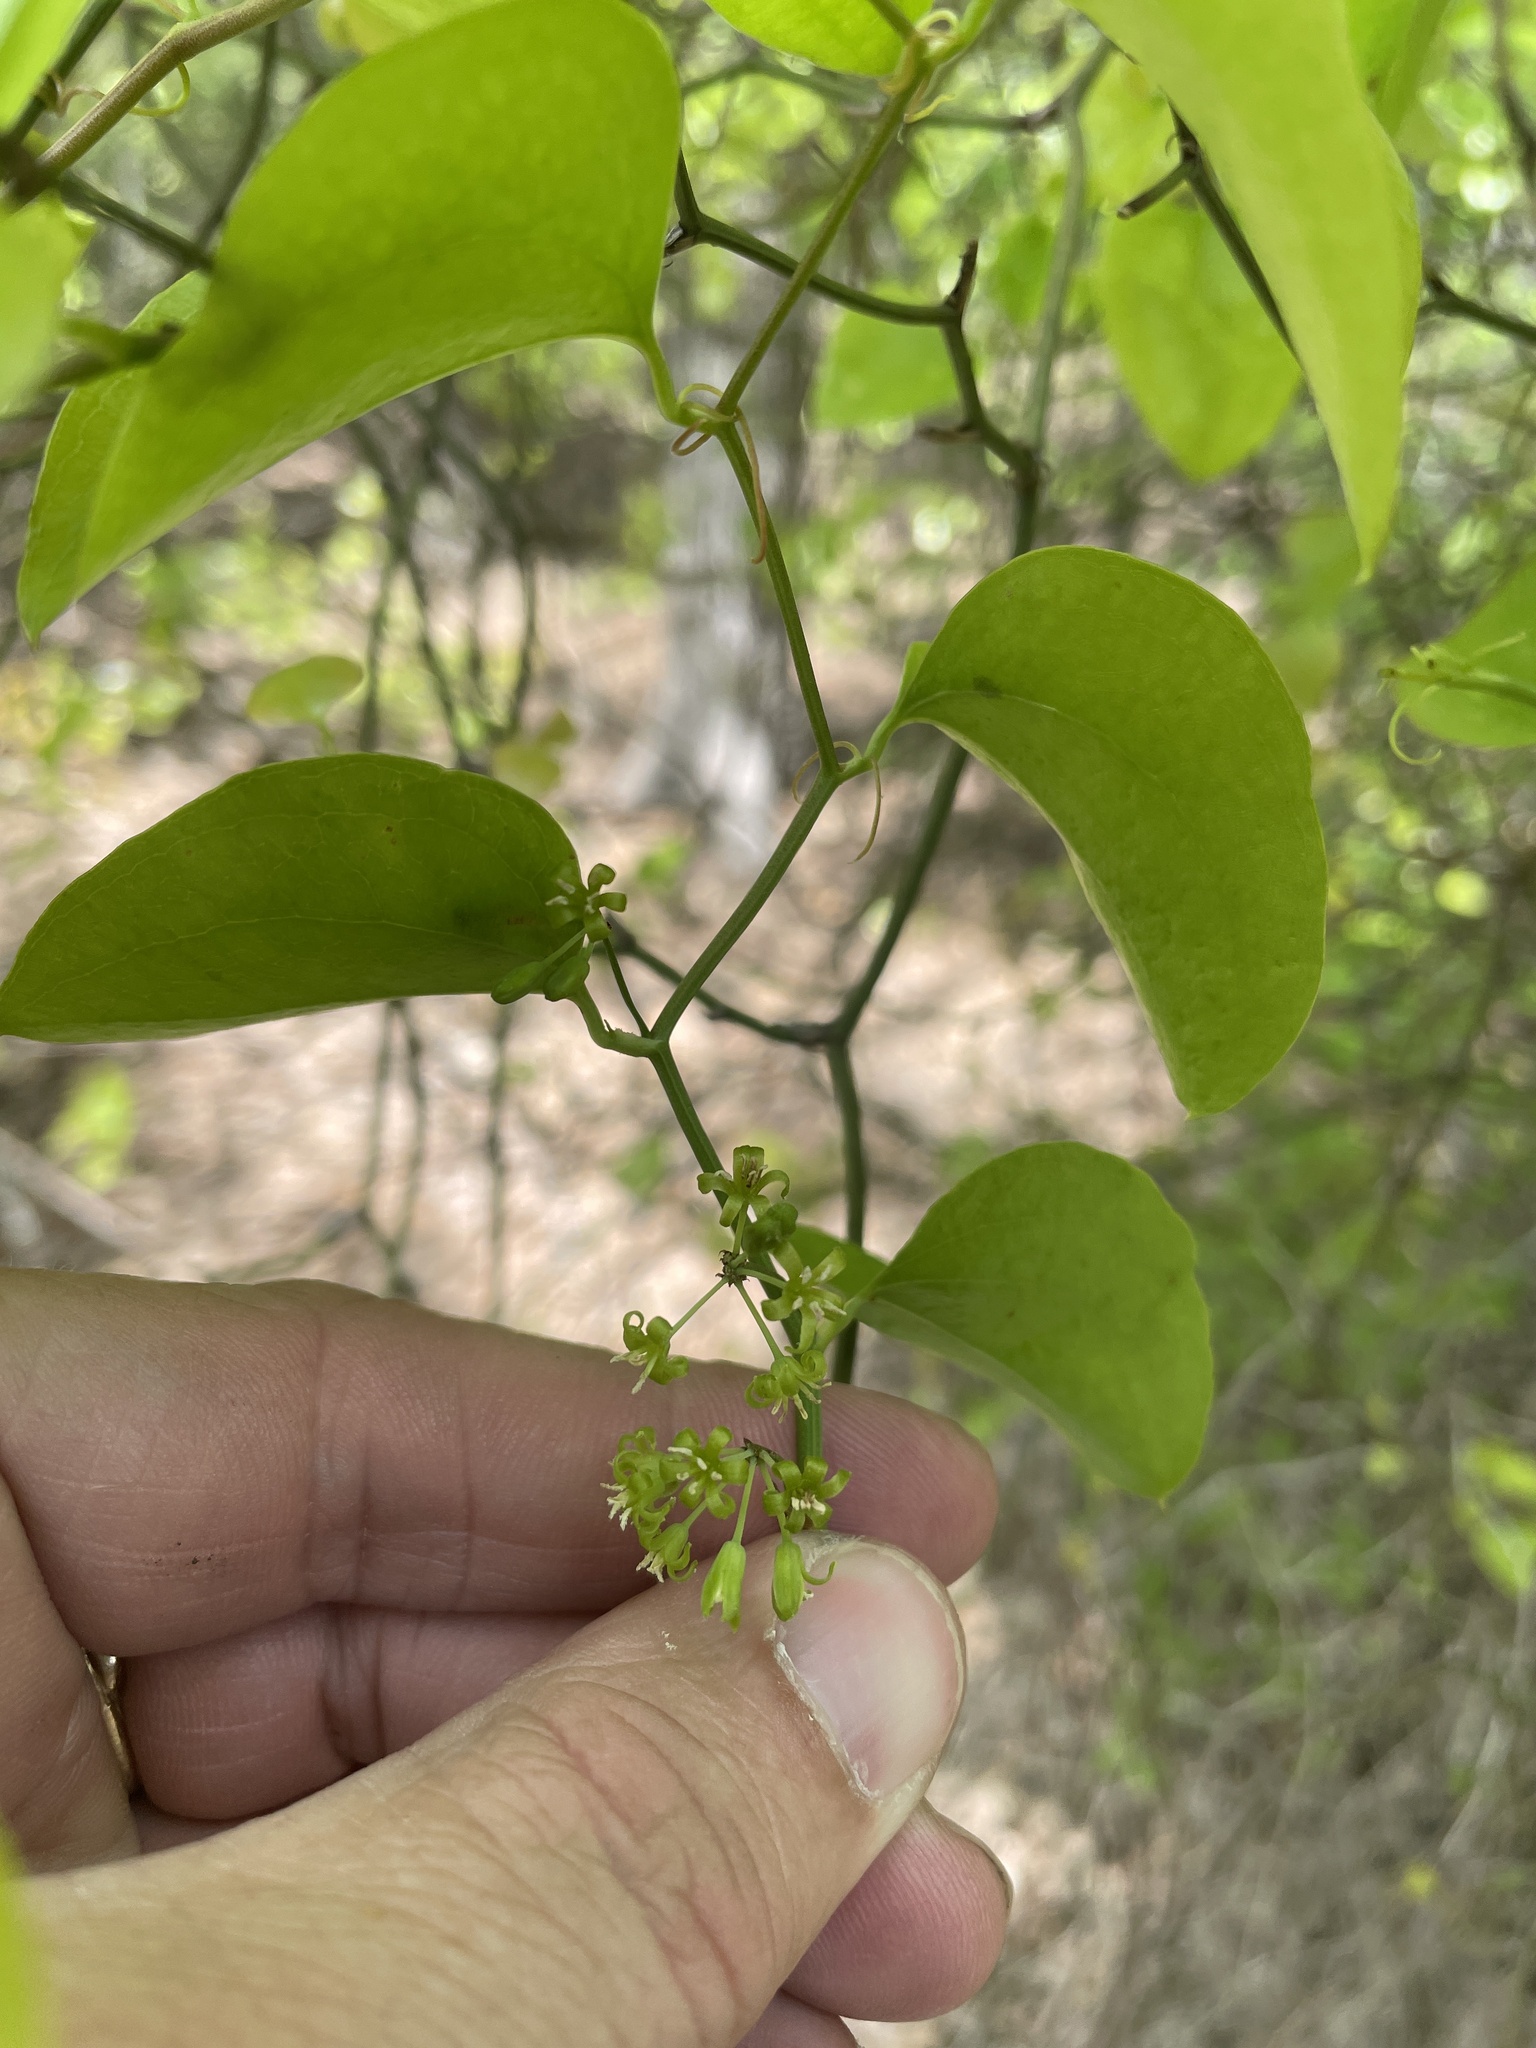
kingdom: Plantae
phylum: Tracheophyta
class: Liliopsida
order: Liliales
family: Smilacaceae
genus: Smilax
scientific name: Smilax bona-nox
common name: Catbrier
